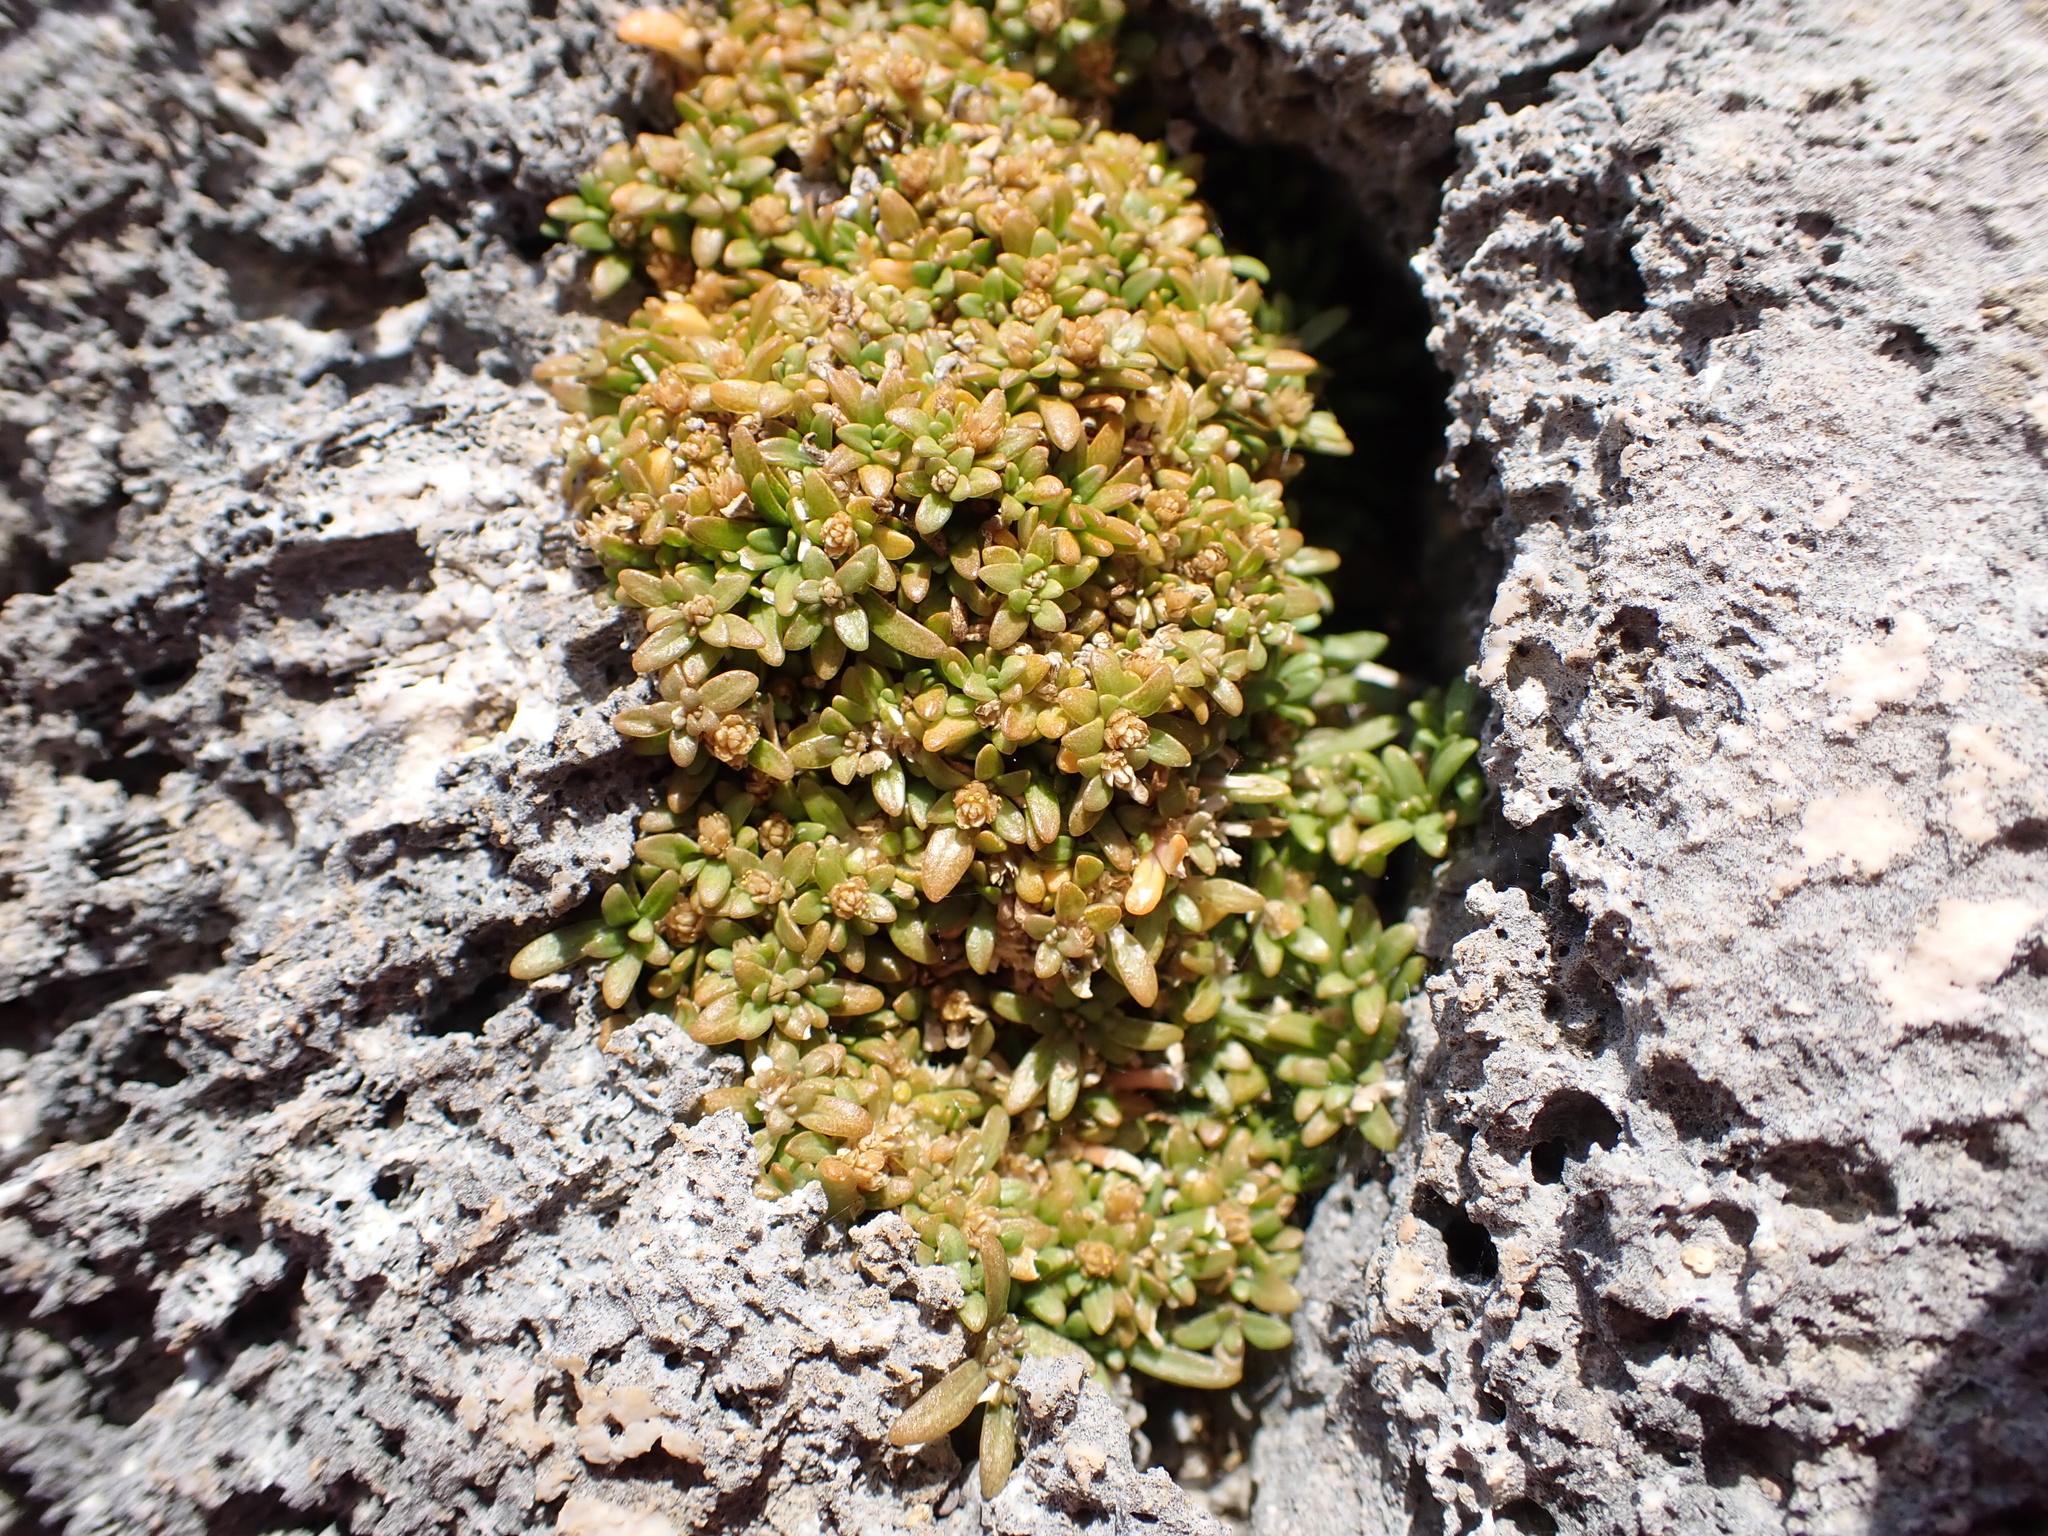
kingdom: Plantae
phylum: Tracheophyta
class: Magnoliopsida
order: Caryophyllales
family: Amaranthaceae
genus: Gomphrena
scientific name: Gomphrena muscoides
